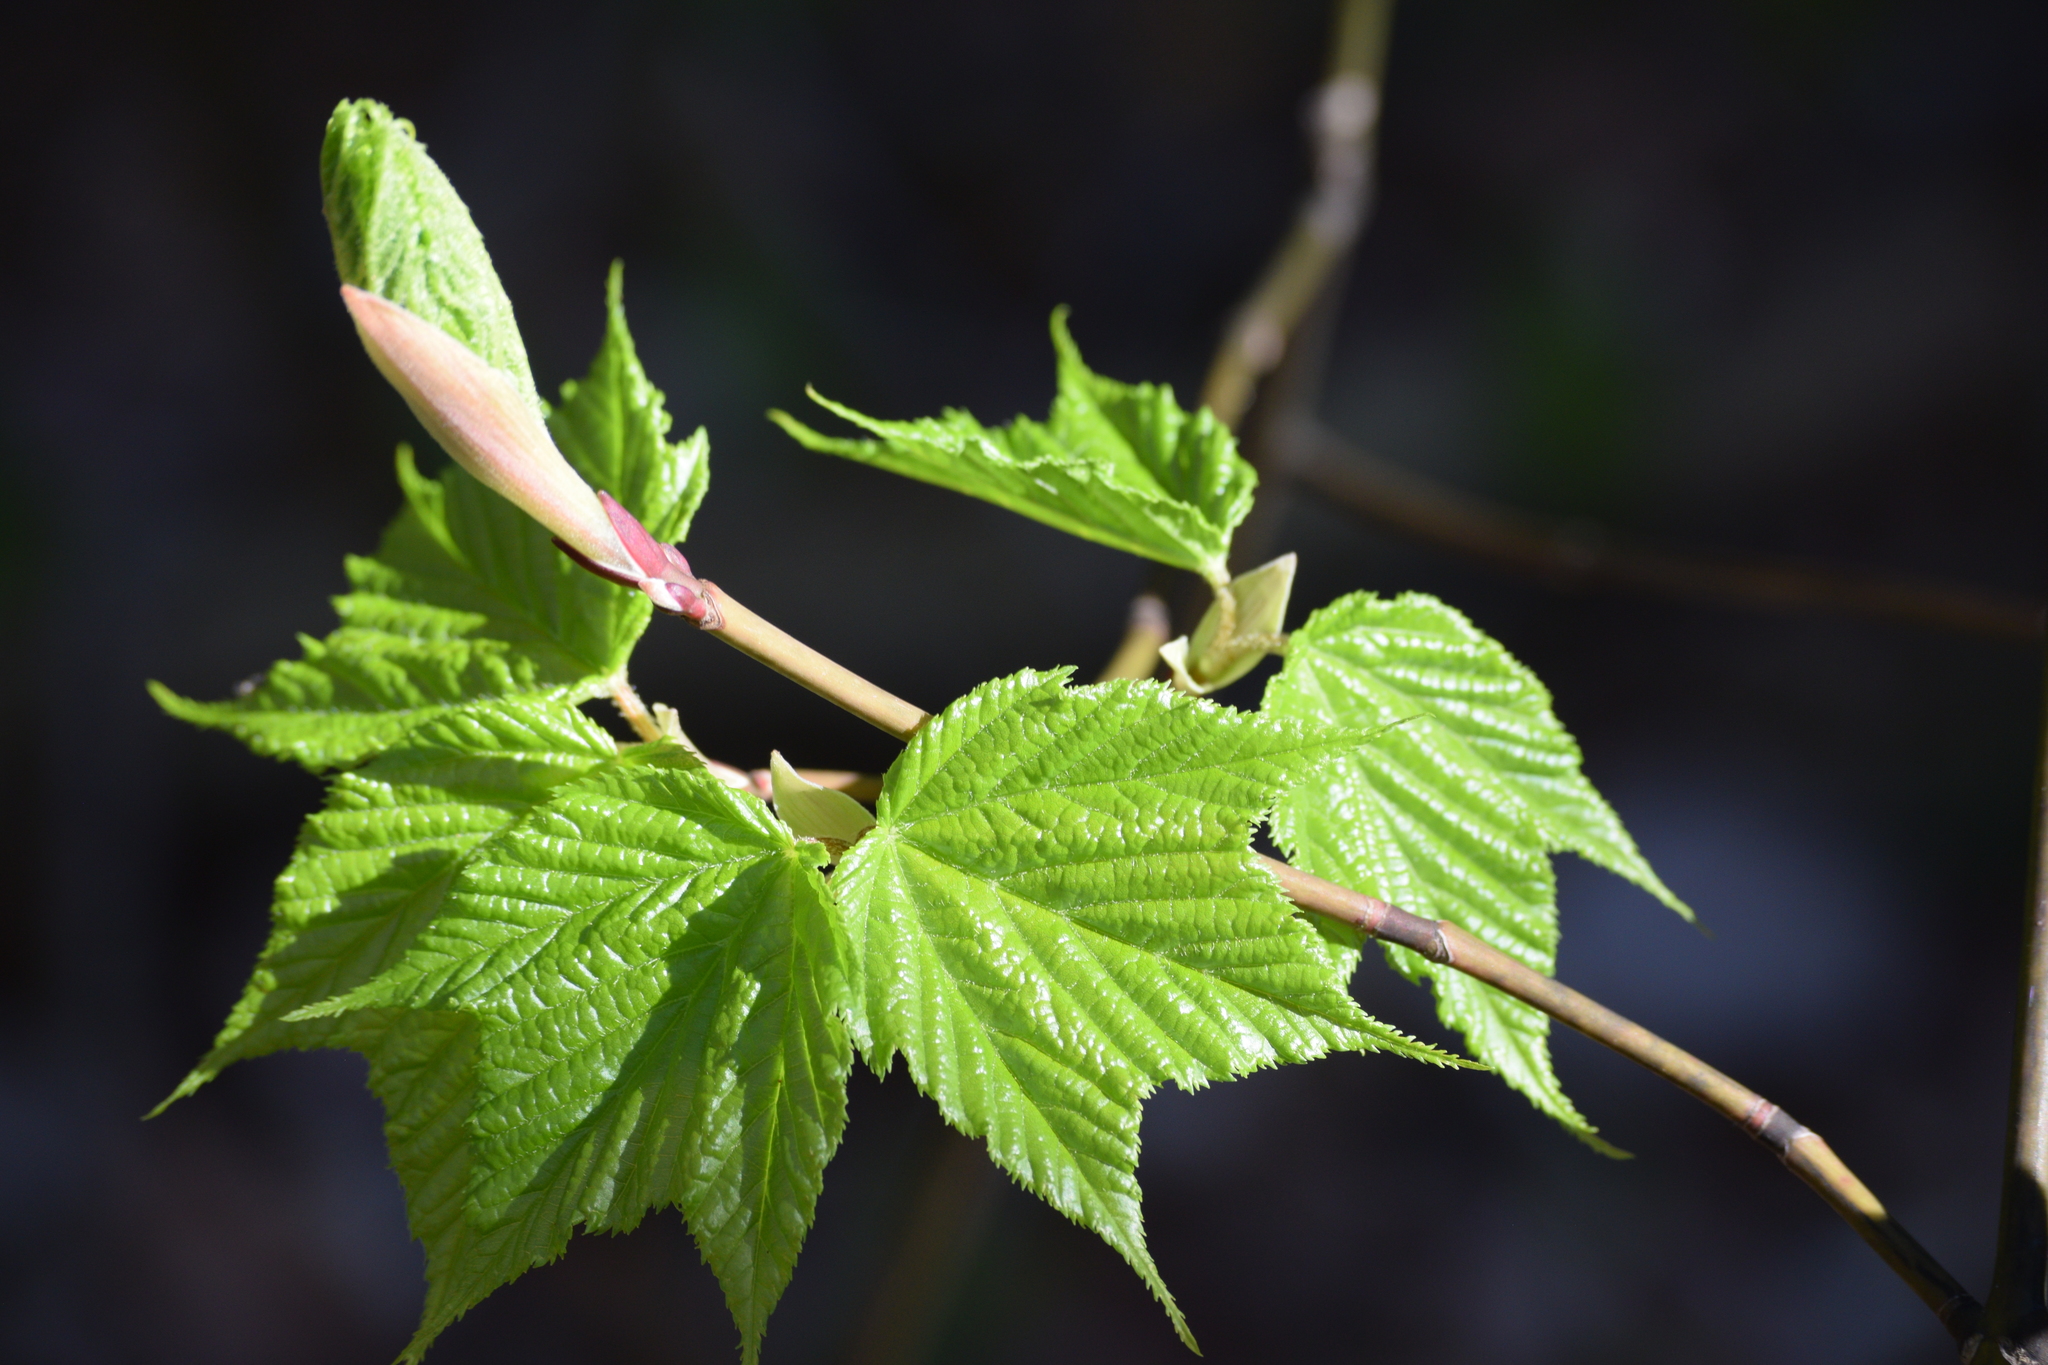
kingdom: Plantae
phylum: Tracheophyta
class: Magnoliopsida
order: Sapindales
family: Sapindaceae
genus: Acer
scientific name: Acer pensylvanicum
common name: Moosewood
